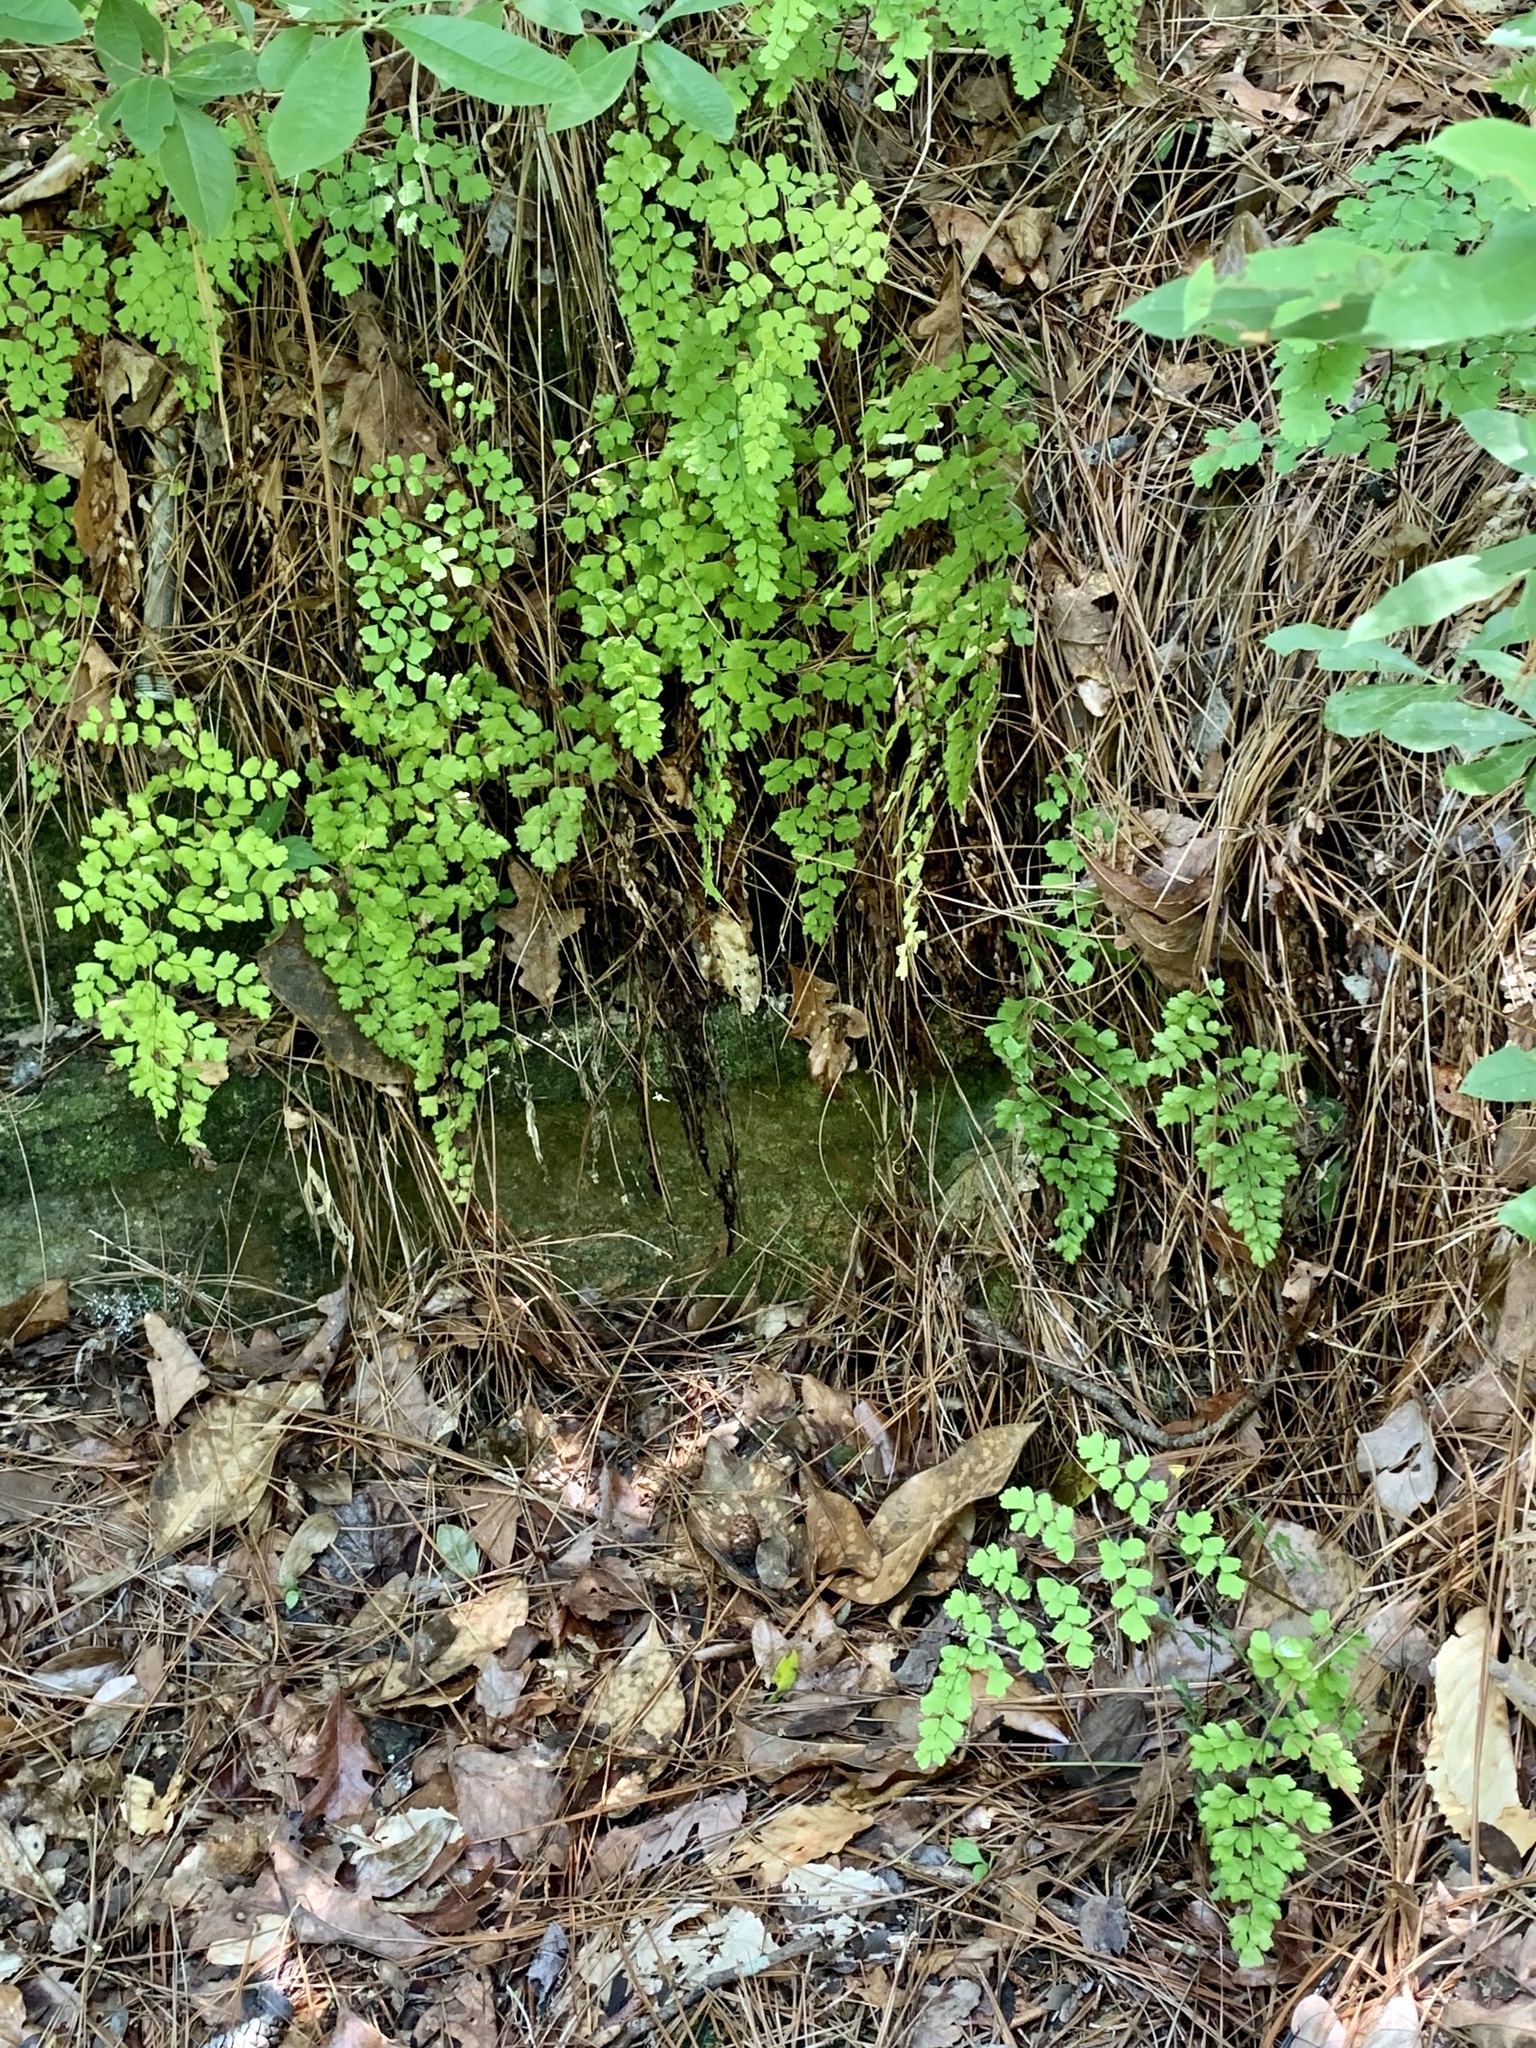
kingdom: Plantae
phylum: Tracheophyta
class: Polypodiopsida
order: Polypodiales
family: Pteridaceae
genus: Adiantum
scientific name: Adiantum capillus-veneris
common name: Maidenhair fern
